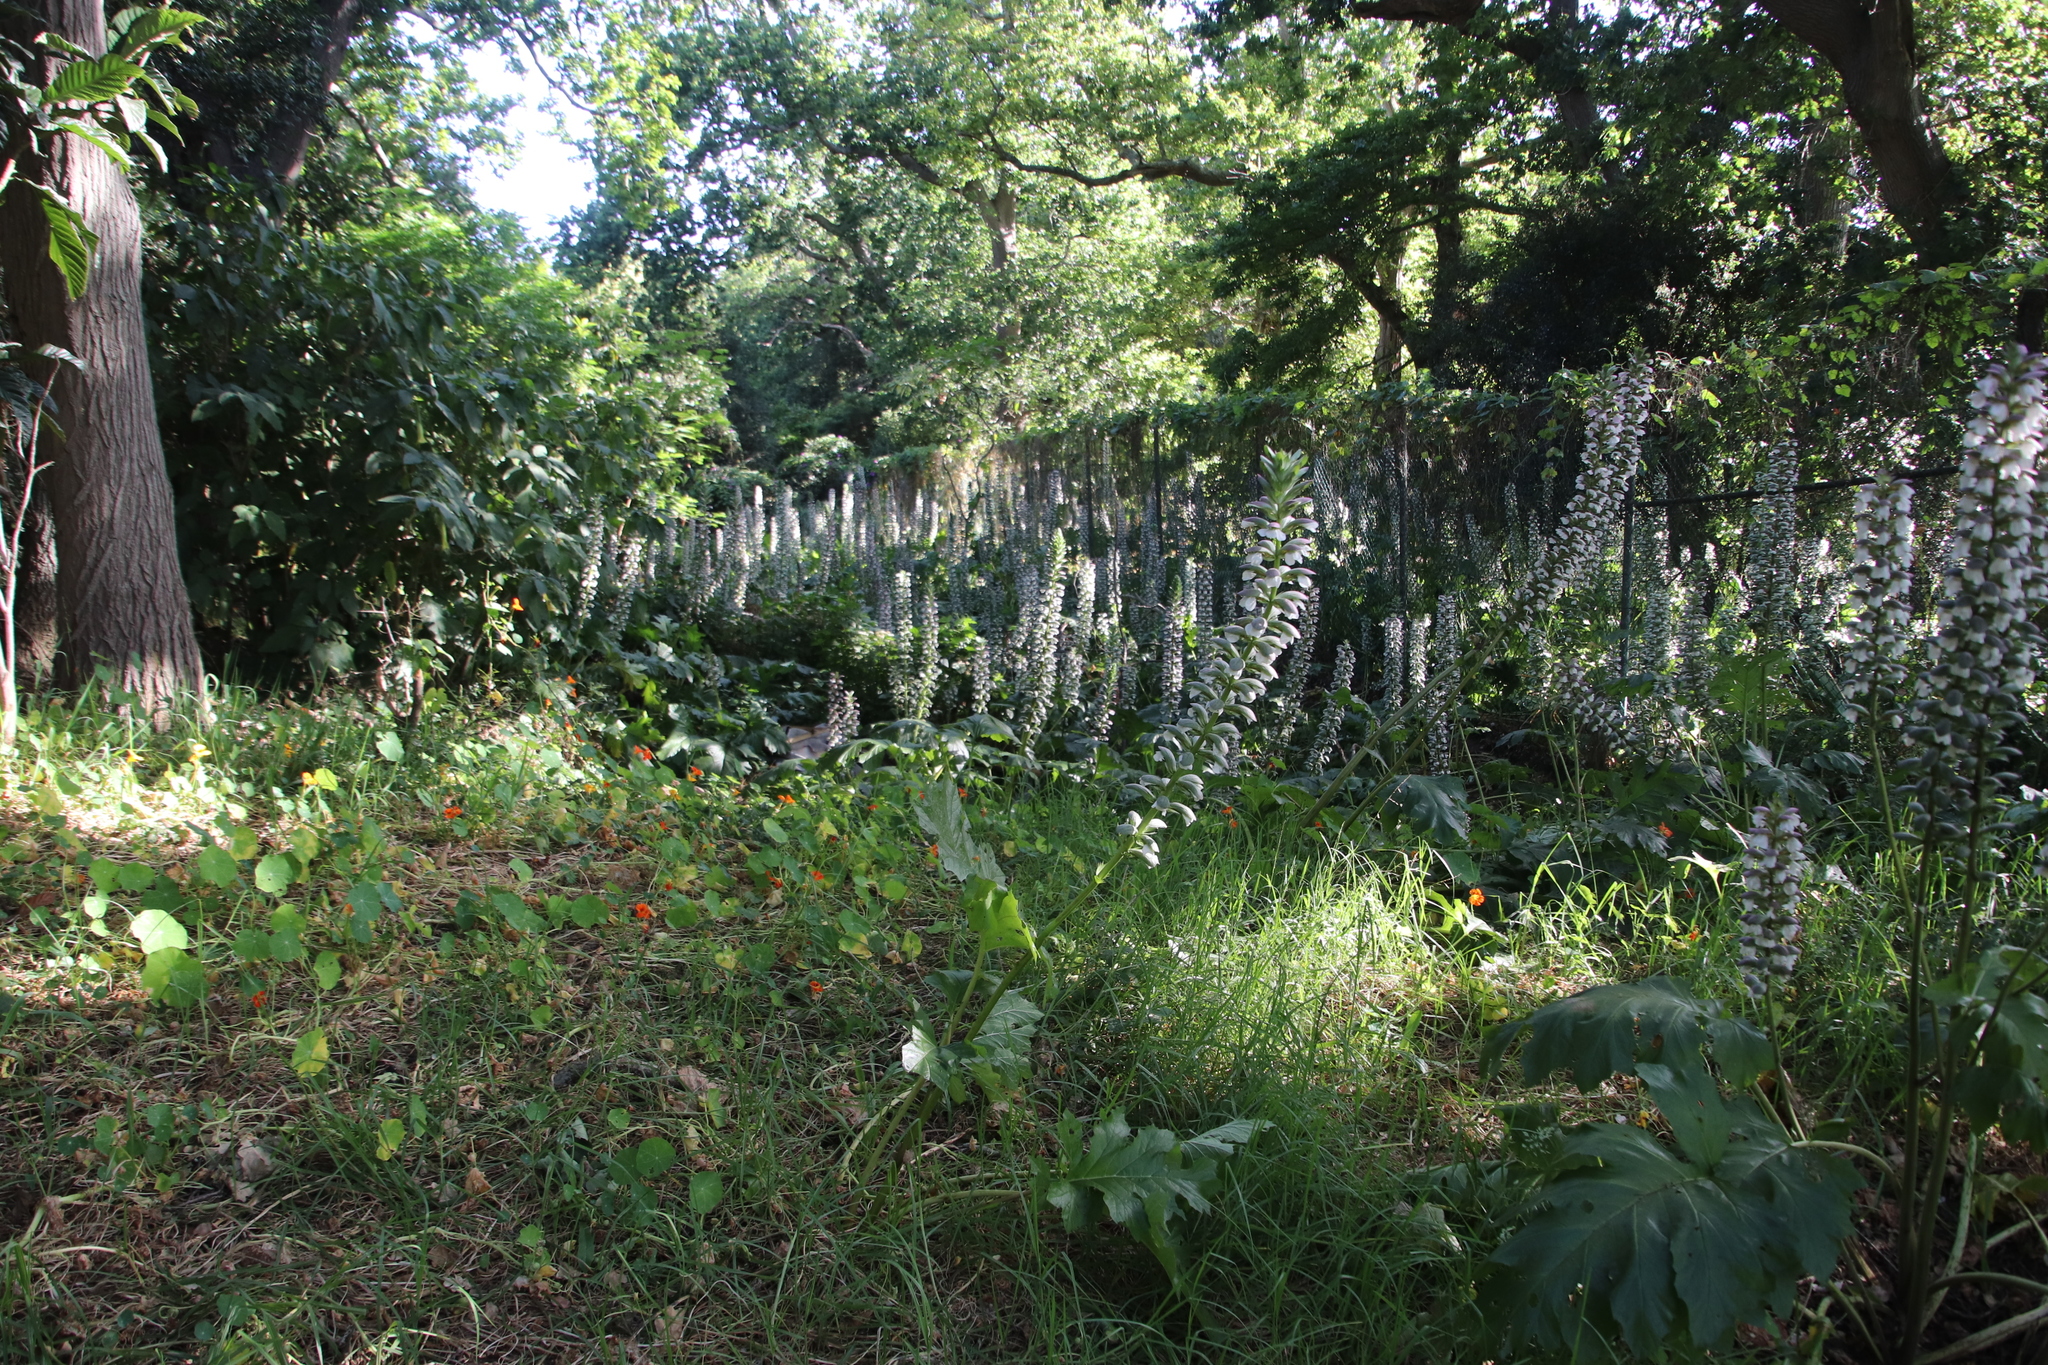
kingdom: Plantae
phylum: Tracheophyta
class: Magnoliopsida
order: Lamiales
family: Acanthaceae
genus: Acanthus
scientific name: Acanthus mollis
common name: Bear's-breech
